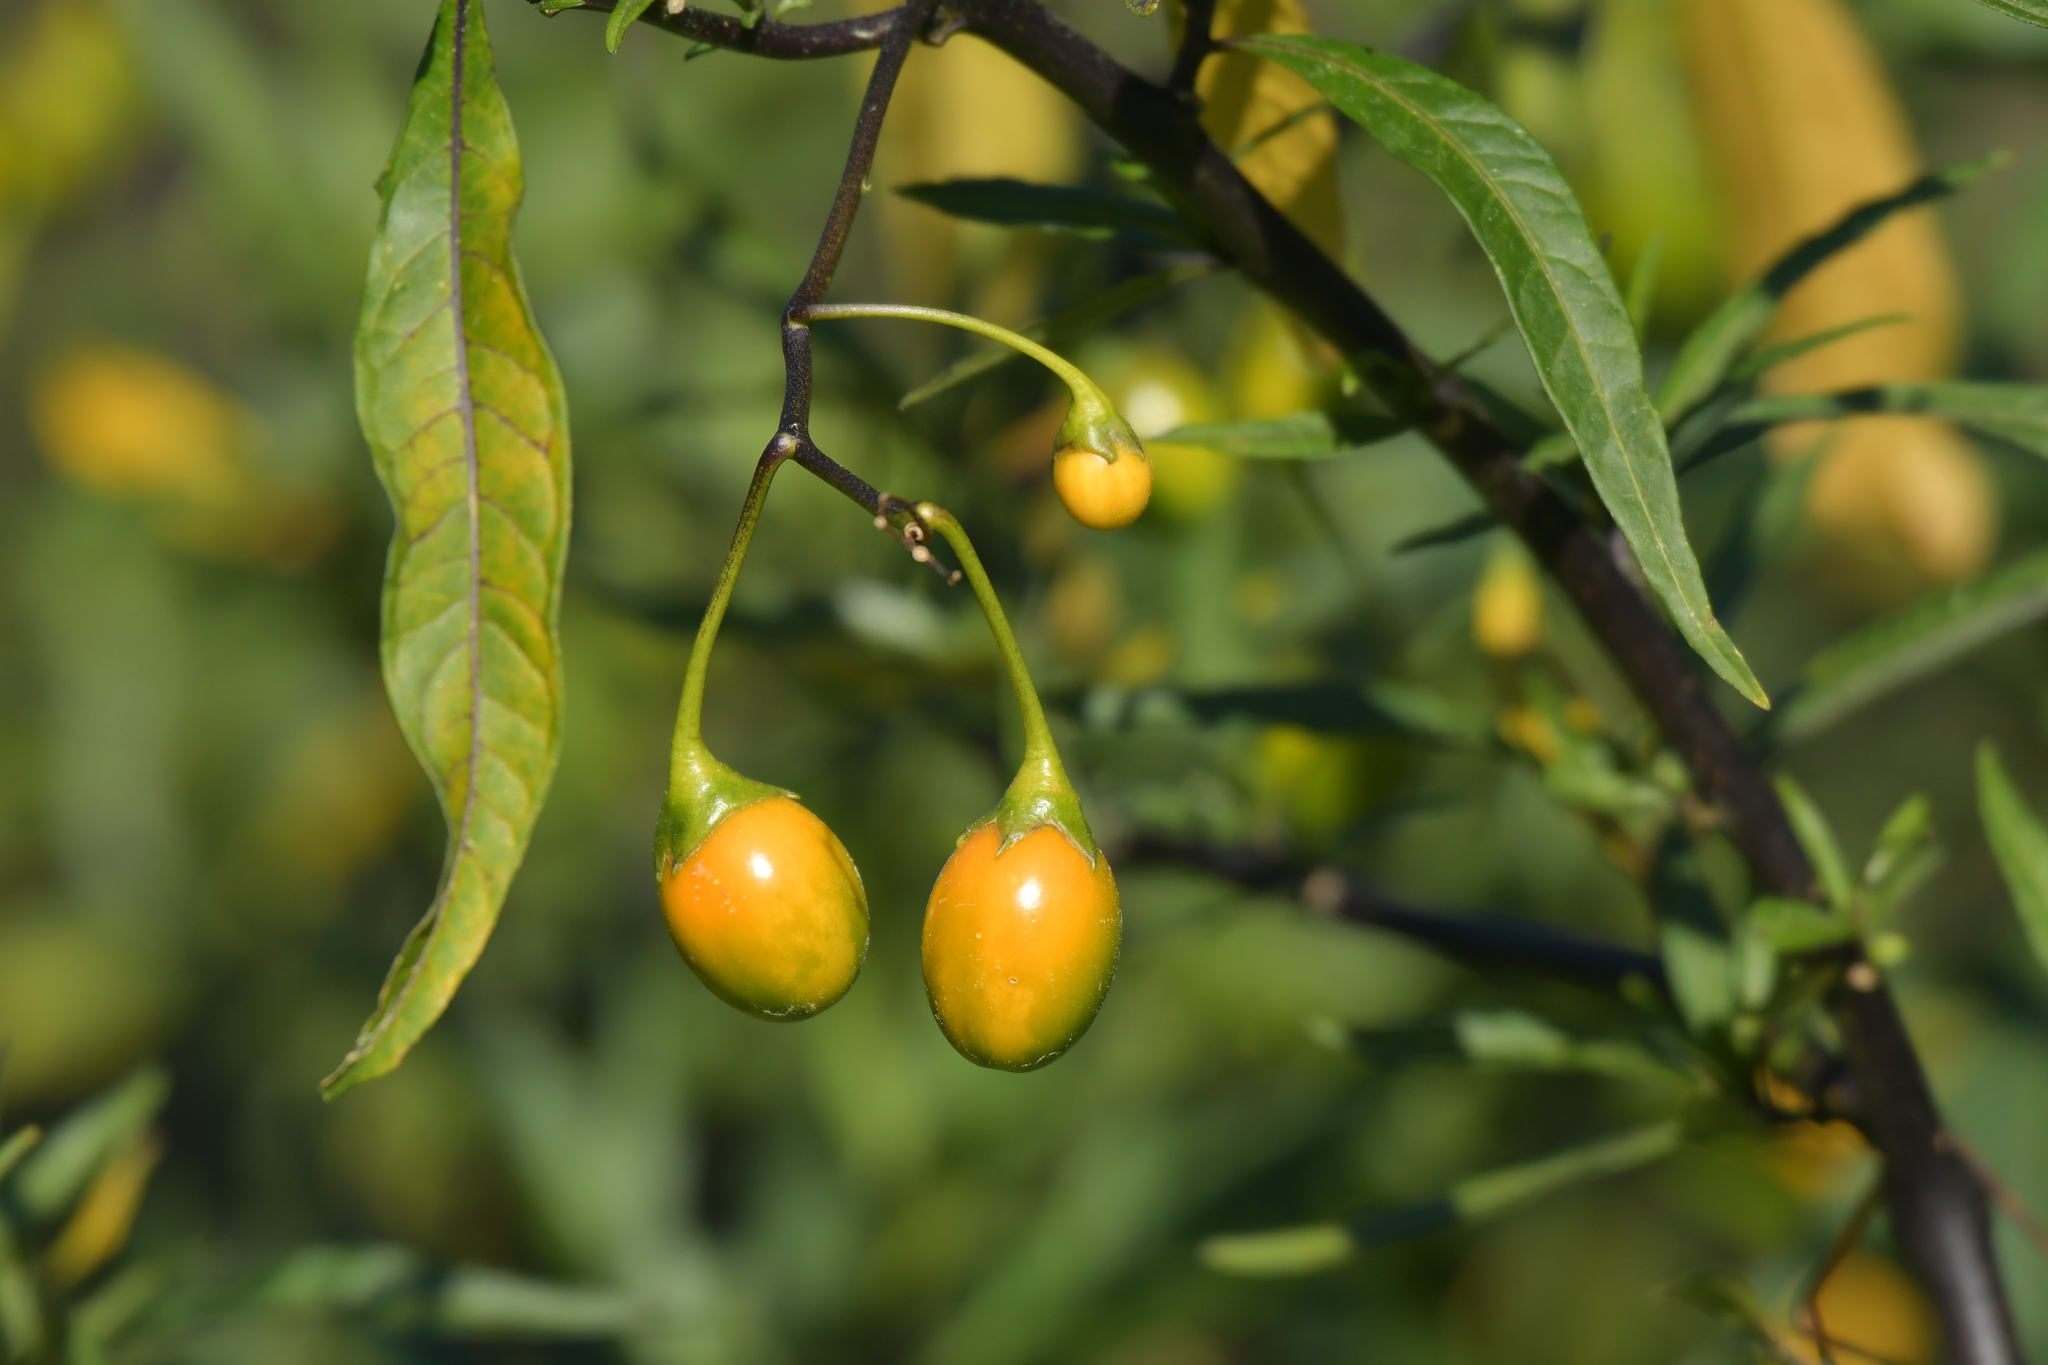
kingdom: Plantae
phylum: Tracheophyta
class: Magnoliopsida
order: Solanales
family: Solanaceae
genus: Solanum
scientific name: Solanum laciniatum
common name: Kangaroo-apple
